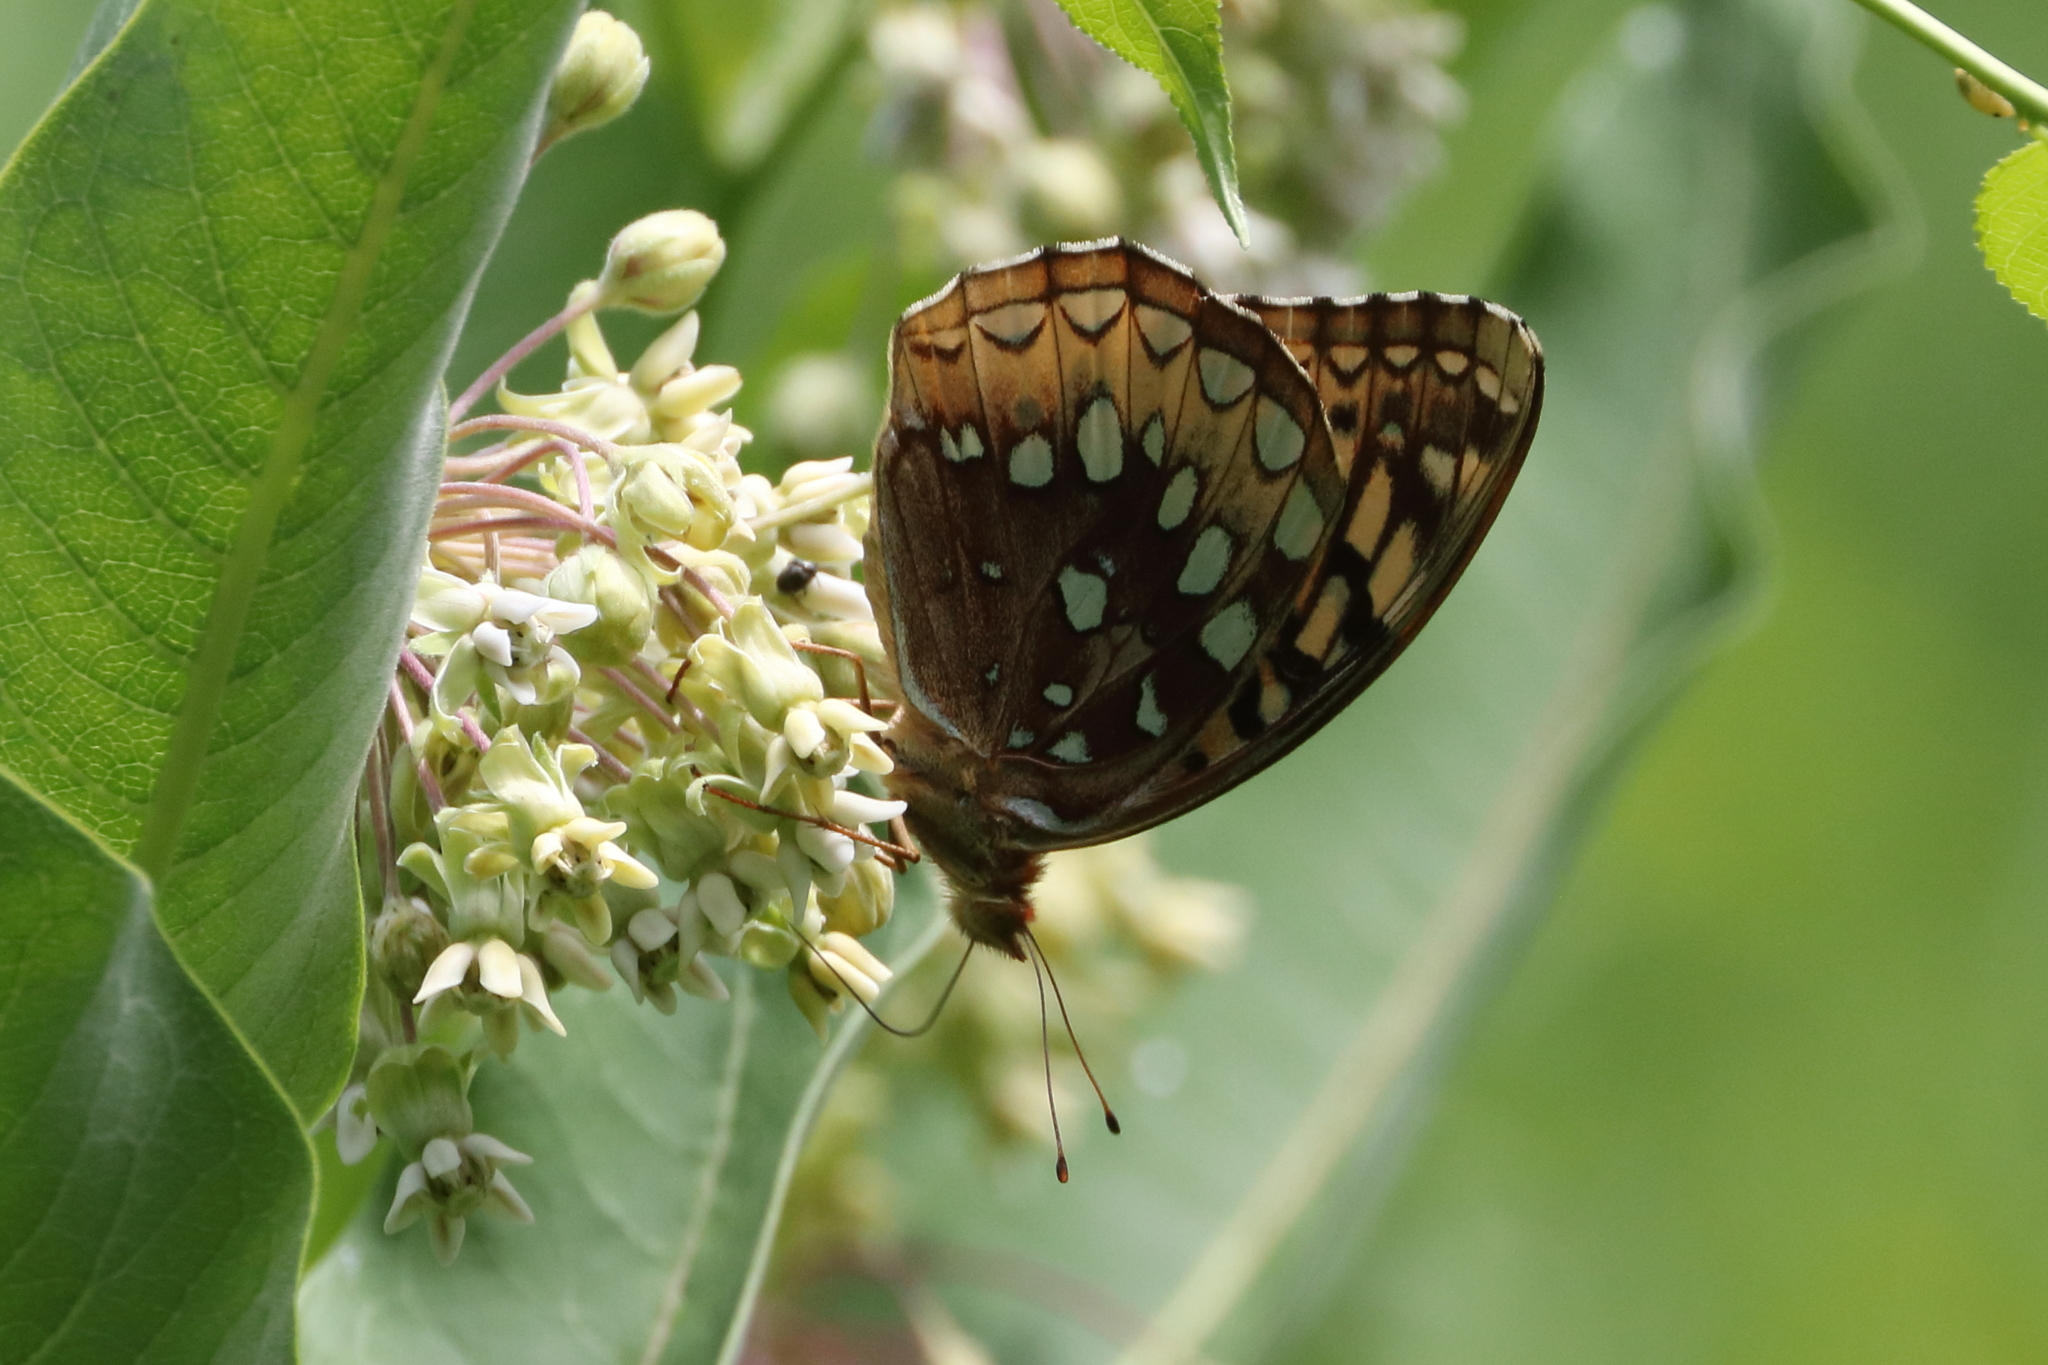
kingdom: Animalia
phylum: Arthropoda
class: Insecta
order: Lepidoptera
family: Nymphalidae
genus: Speyeria
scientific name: Speyeria cybele
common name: Great spangled fritillary
